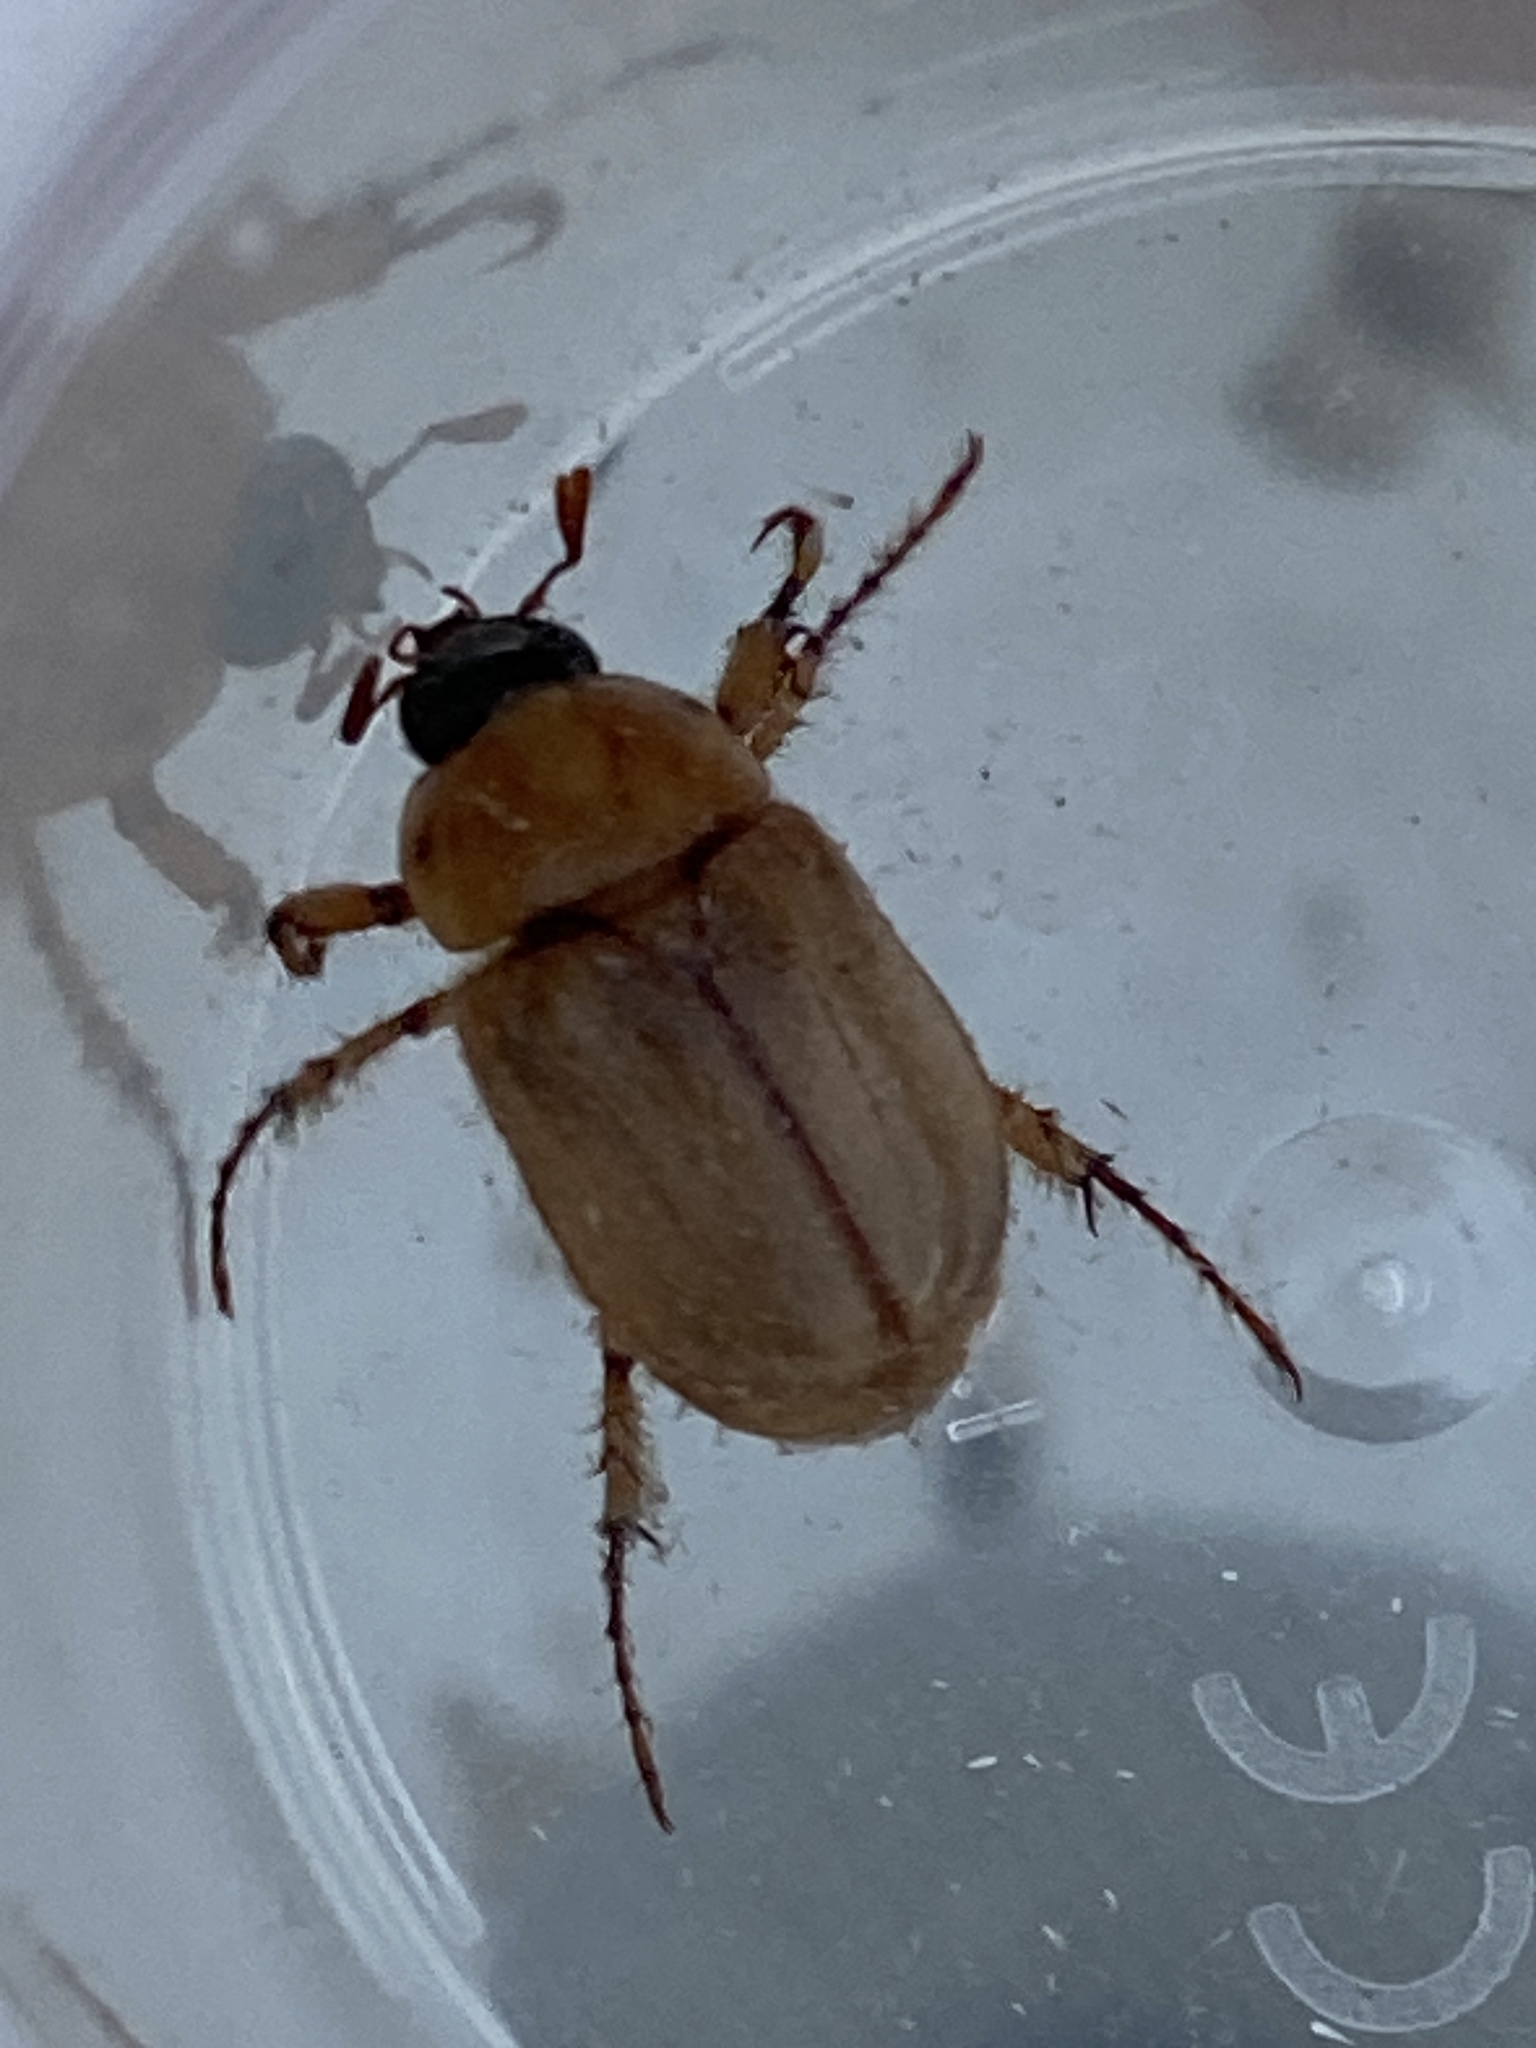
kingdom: Animalia
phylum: Arthropoda
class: Insecta
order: Coleoptera
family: Scarabaeidae
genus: Cyclocephala
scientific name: Cyclocephala signaticollis
